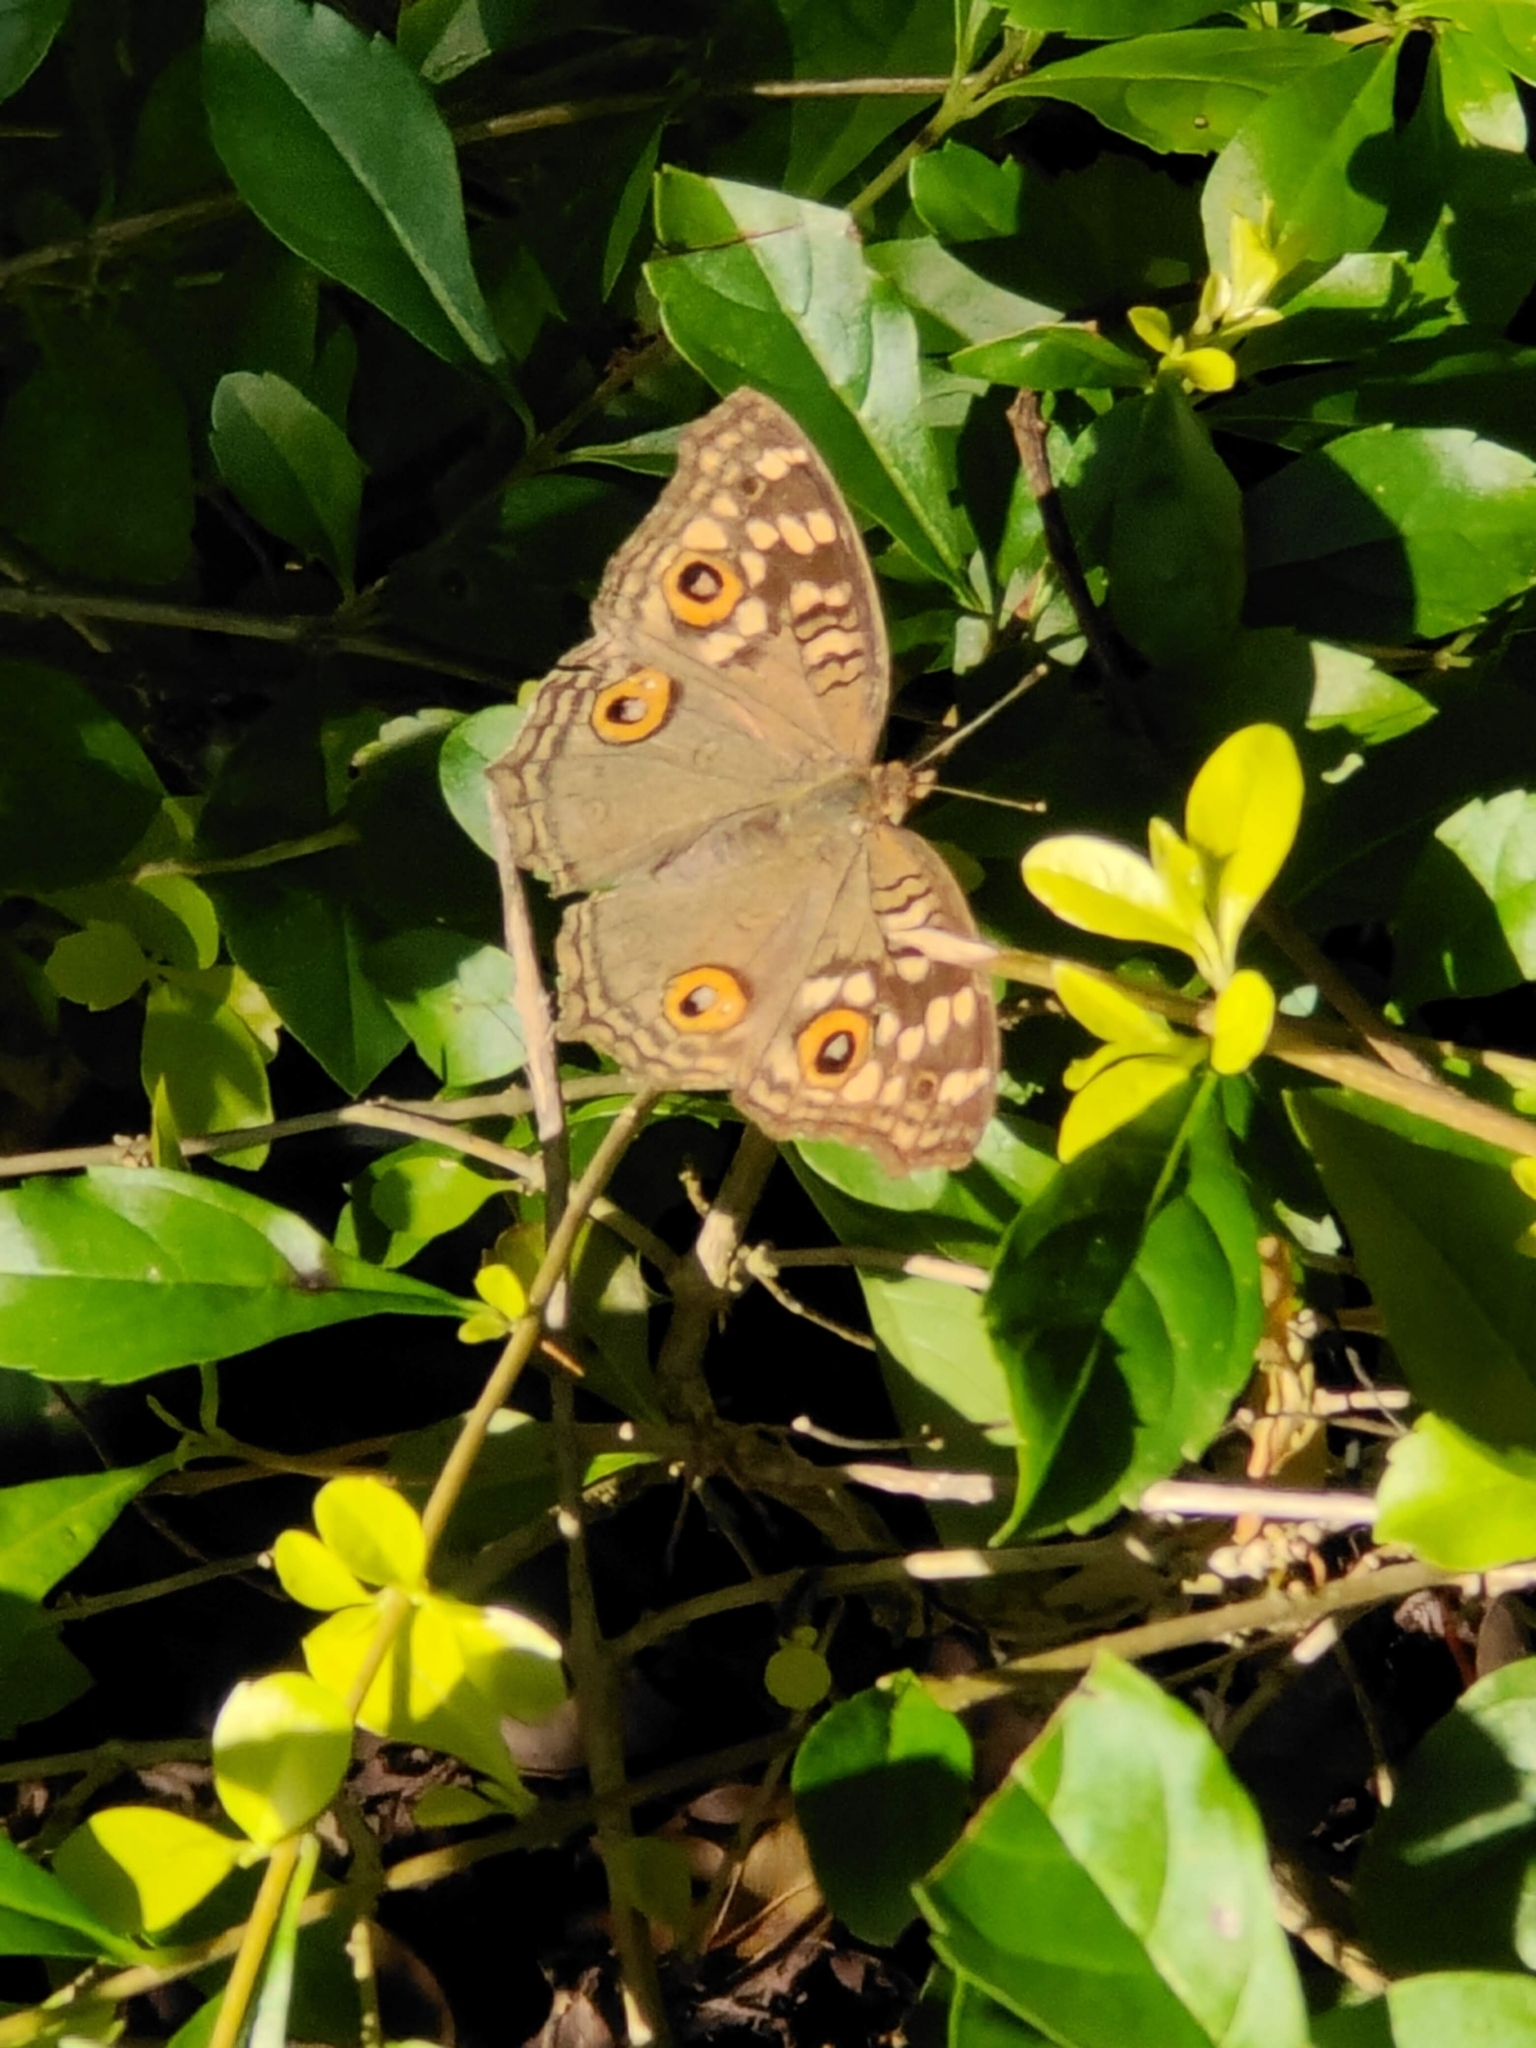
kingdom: Animalia
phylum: Arthropoda
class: Insecta
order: Lepidoptera
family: Nymphalidae
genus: Junonia
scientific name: Junonia lemonias
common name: Lemon pansy
